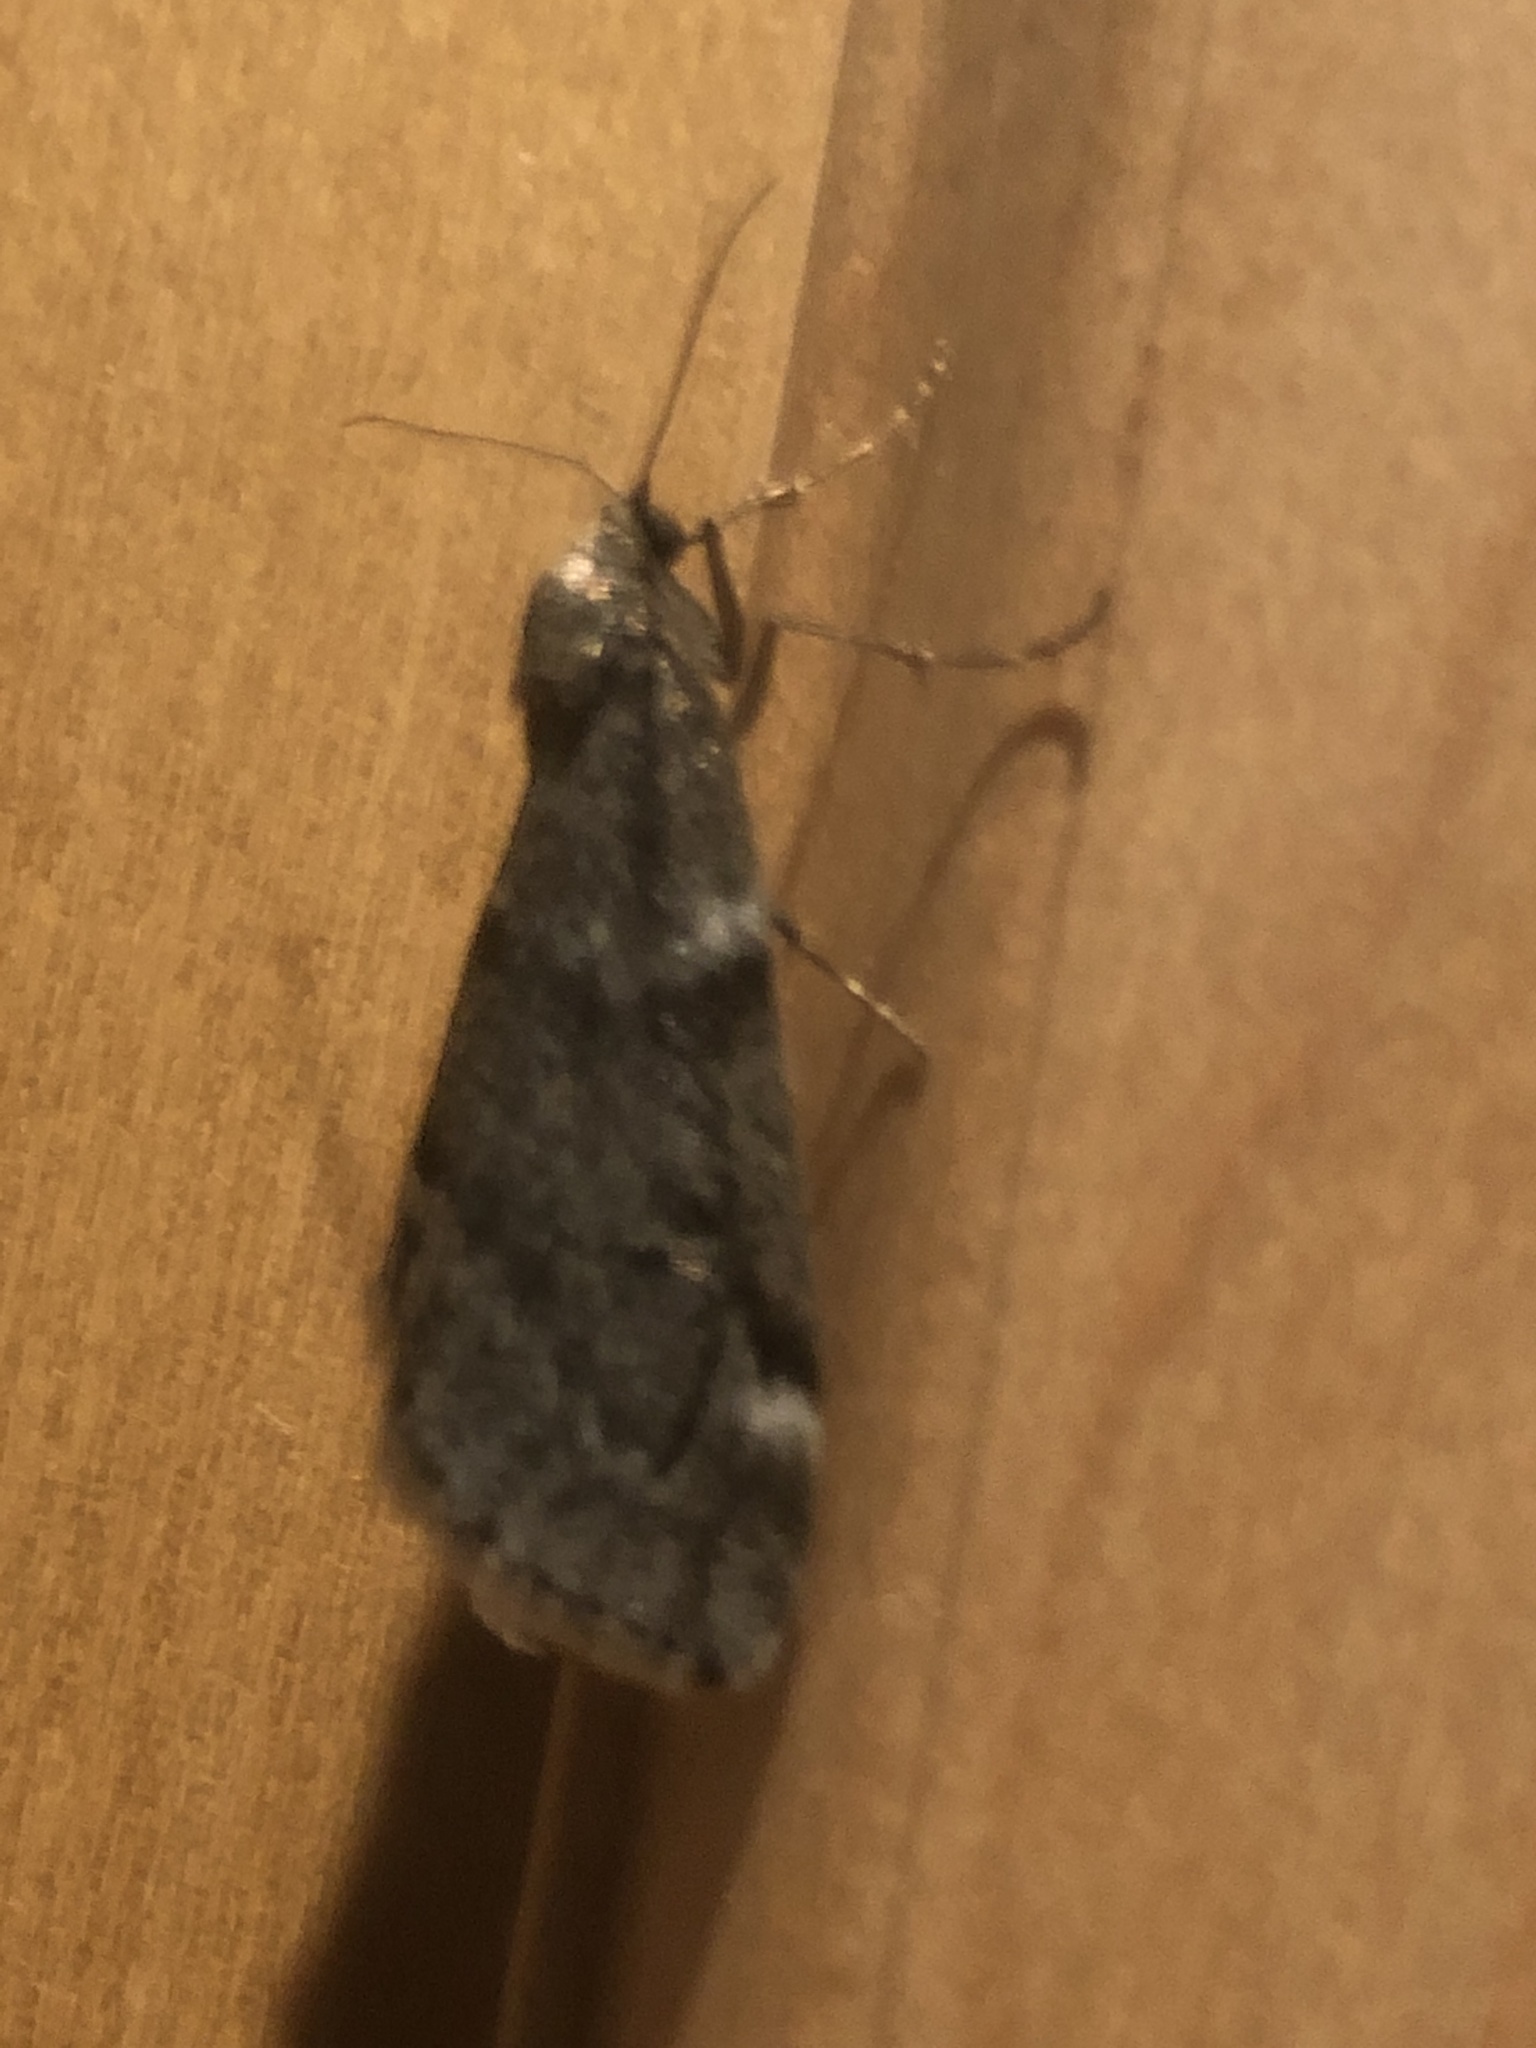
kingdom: Animalia
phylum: Arthropoda
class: Insecta
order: Lepidoptera
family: Geometridae
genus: Alsophila
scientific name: Alsophila pometaria
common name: Fall cankerworm
